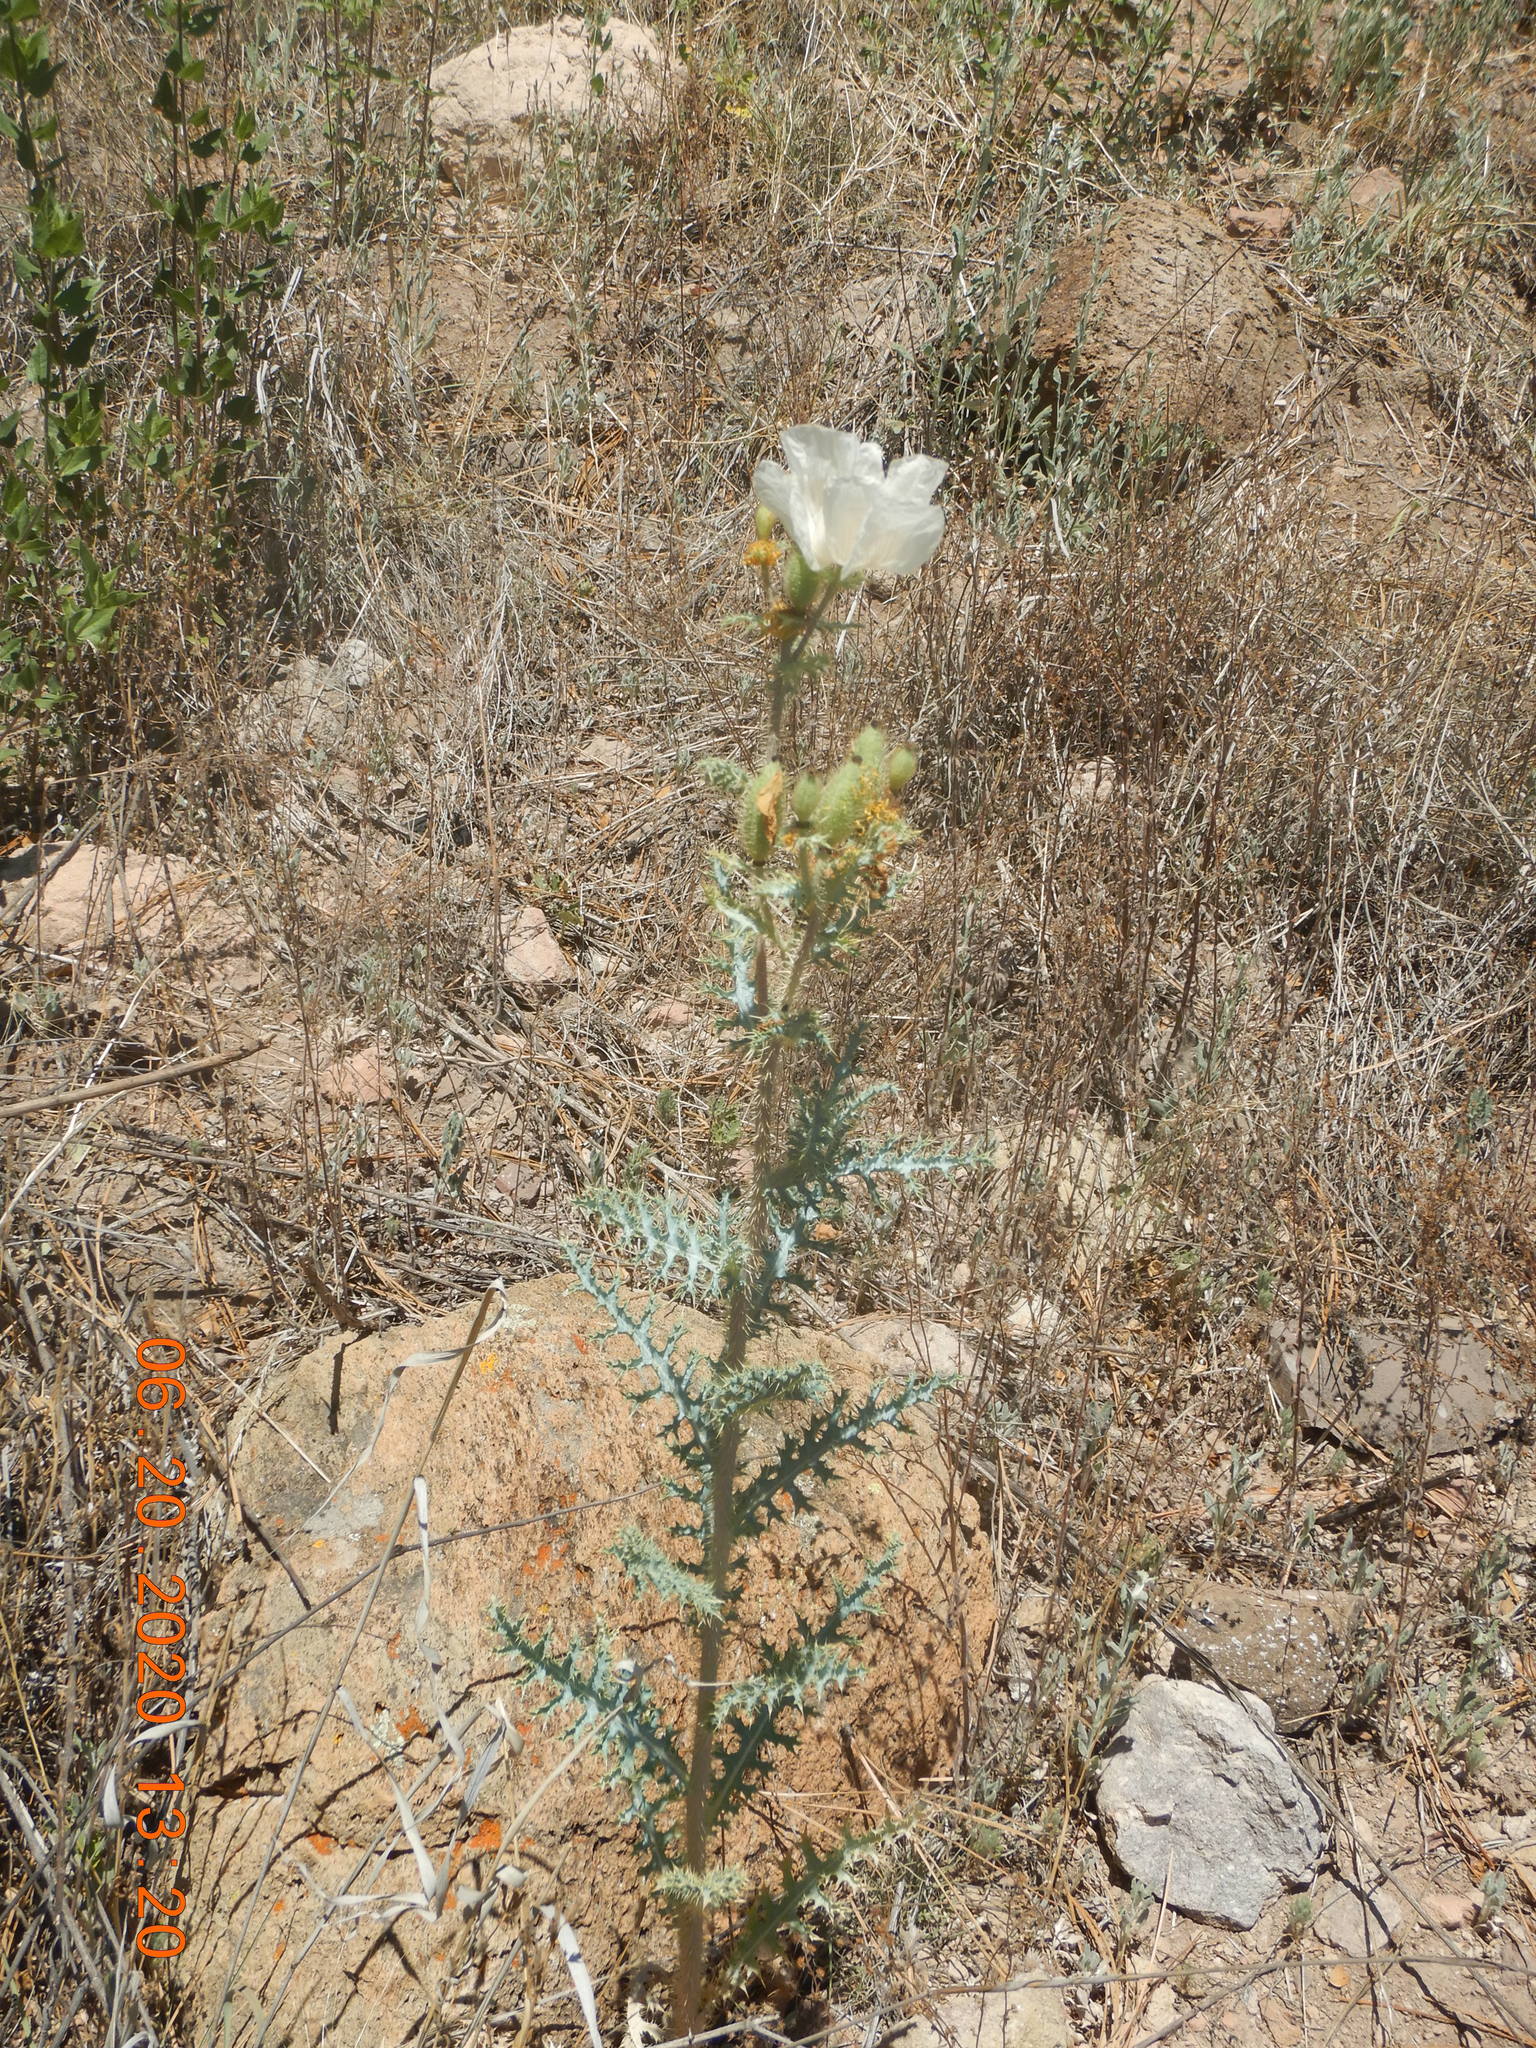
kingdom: Plantae
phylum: Tracheophyta
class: Magnoliopsida
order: Ranunculales
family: Papaveraceae
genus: Argemone
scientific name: Argemone pleiacantha
